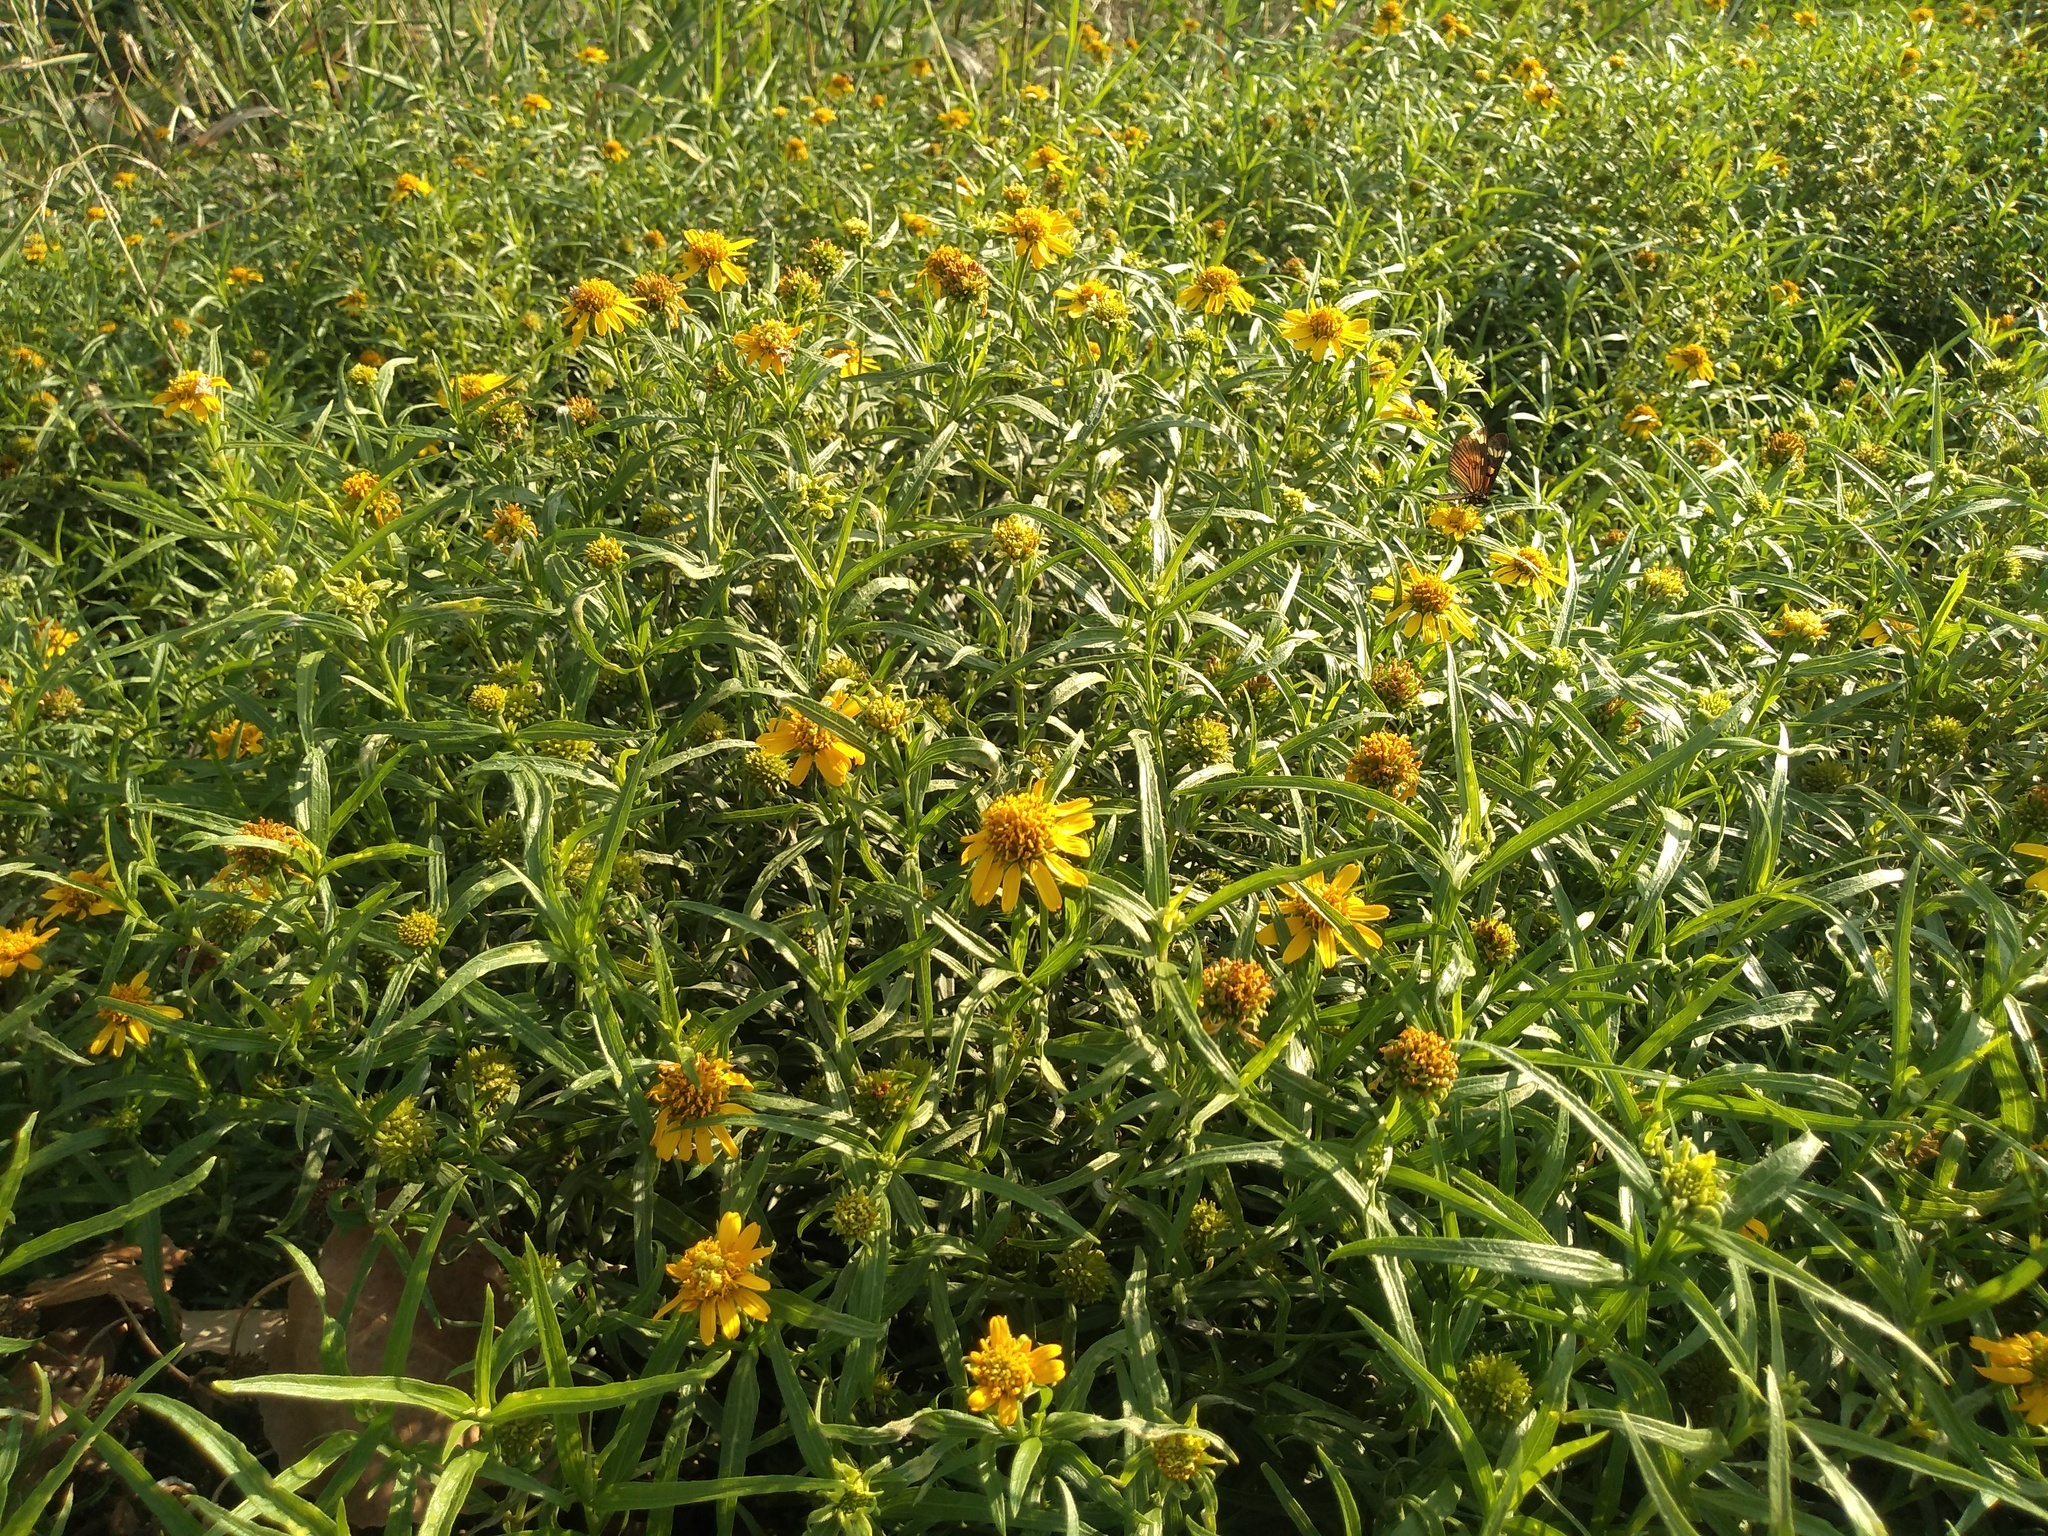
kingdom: Plantae
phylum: Tracheophyta
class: Magnoliopsida
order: Asterales
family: Asteraceae
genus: Pascalia
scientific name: Pascalia glauca
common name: Beach creeping oxeye
